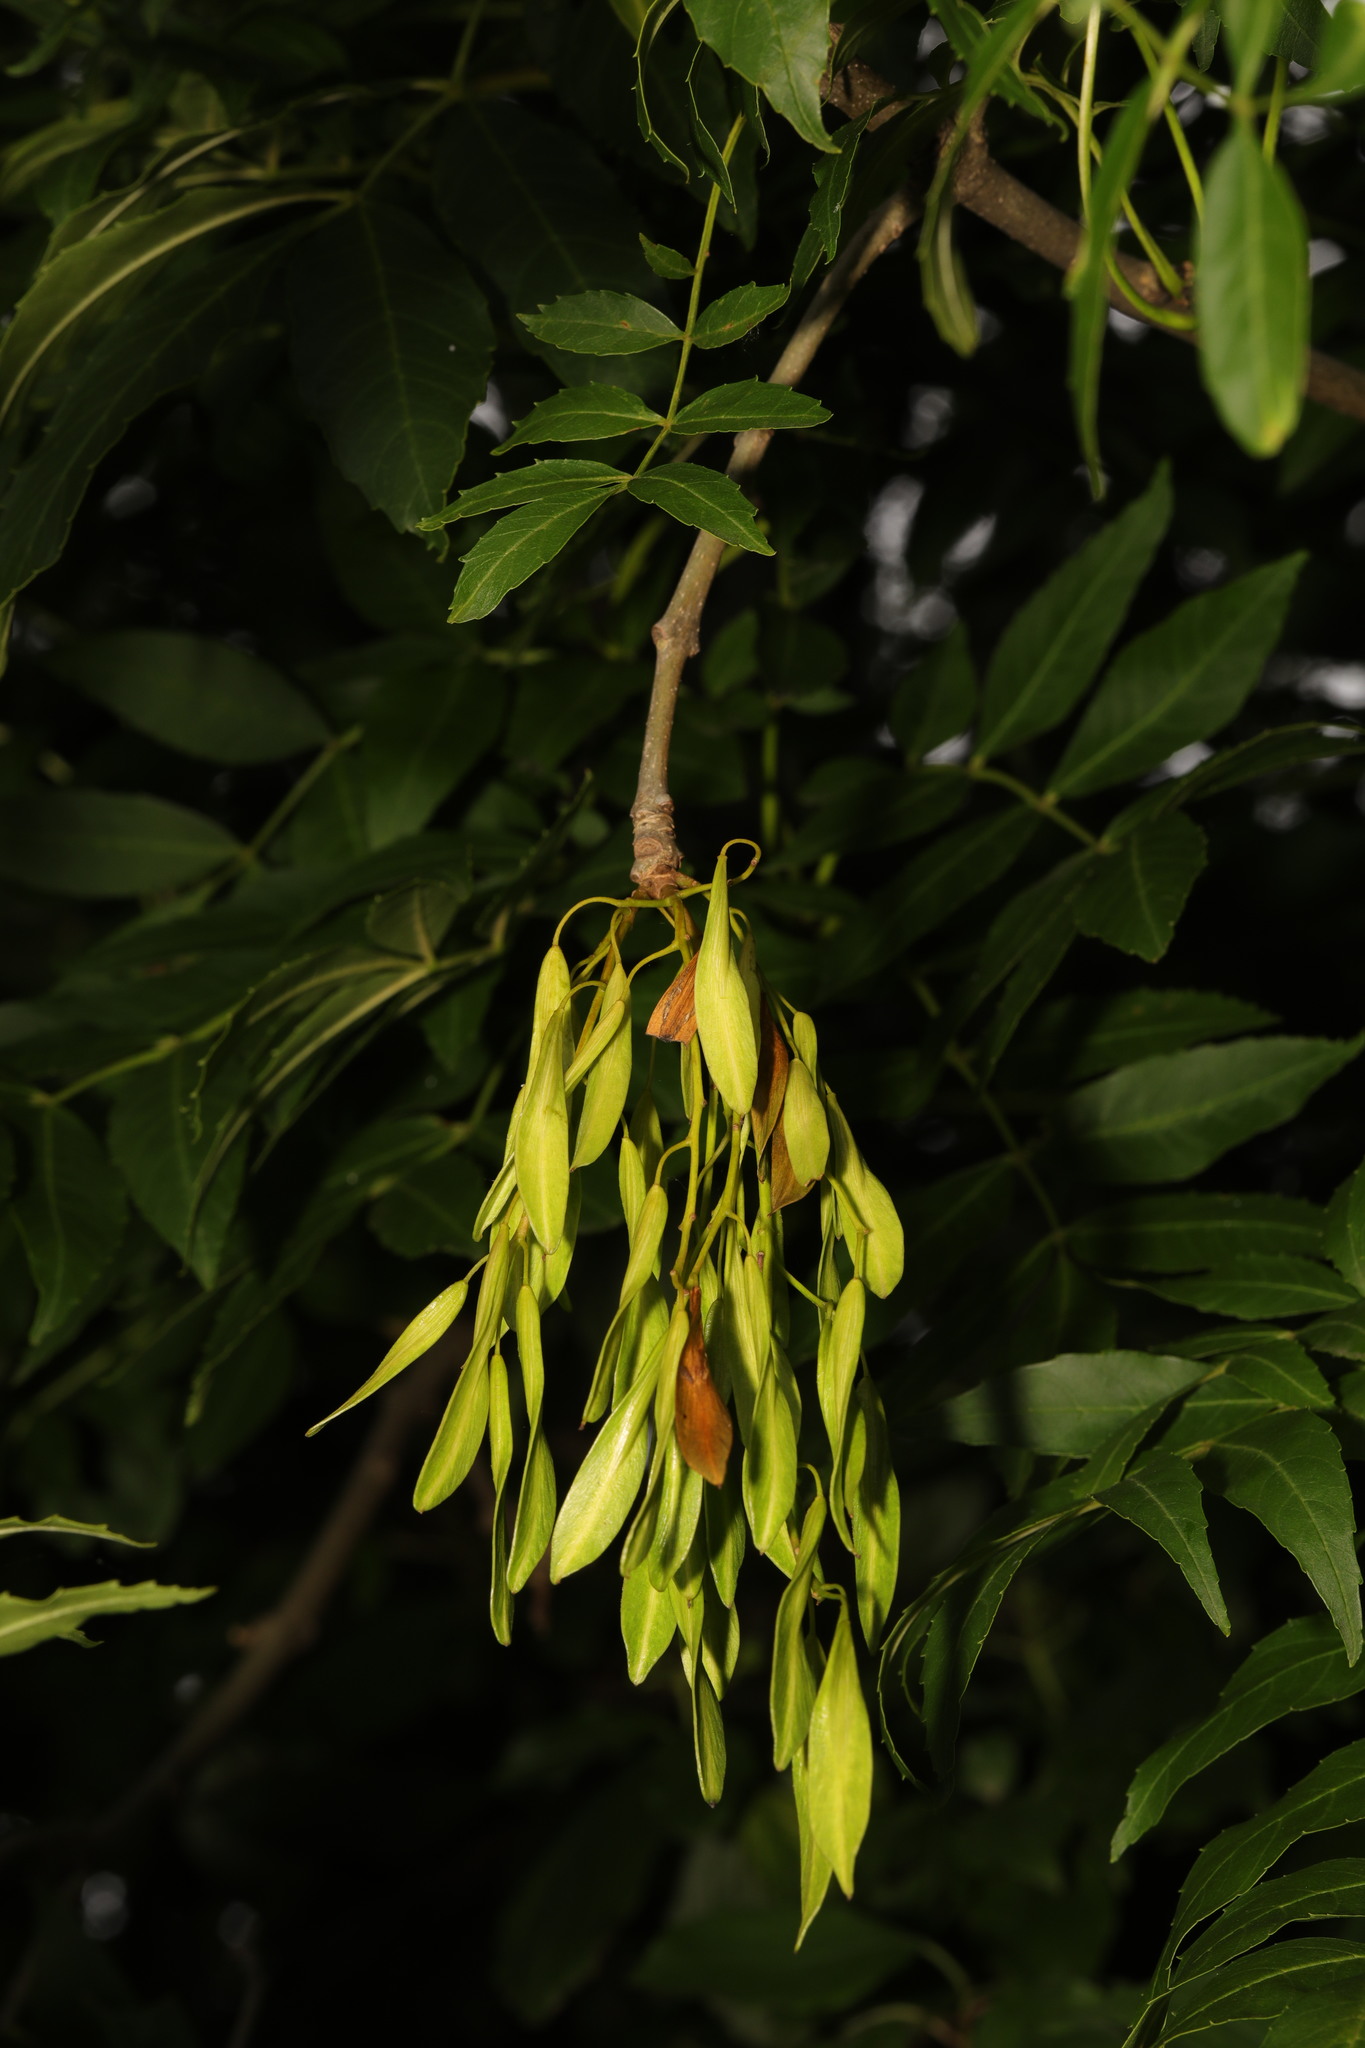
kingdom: Plantae
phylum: Tracheophyta
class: Magnoliopsida
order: Lamiales
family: Oleaceae
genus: Fraxinus
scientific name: Fraxinus excelsior
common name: European ash
